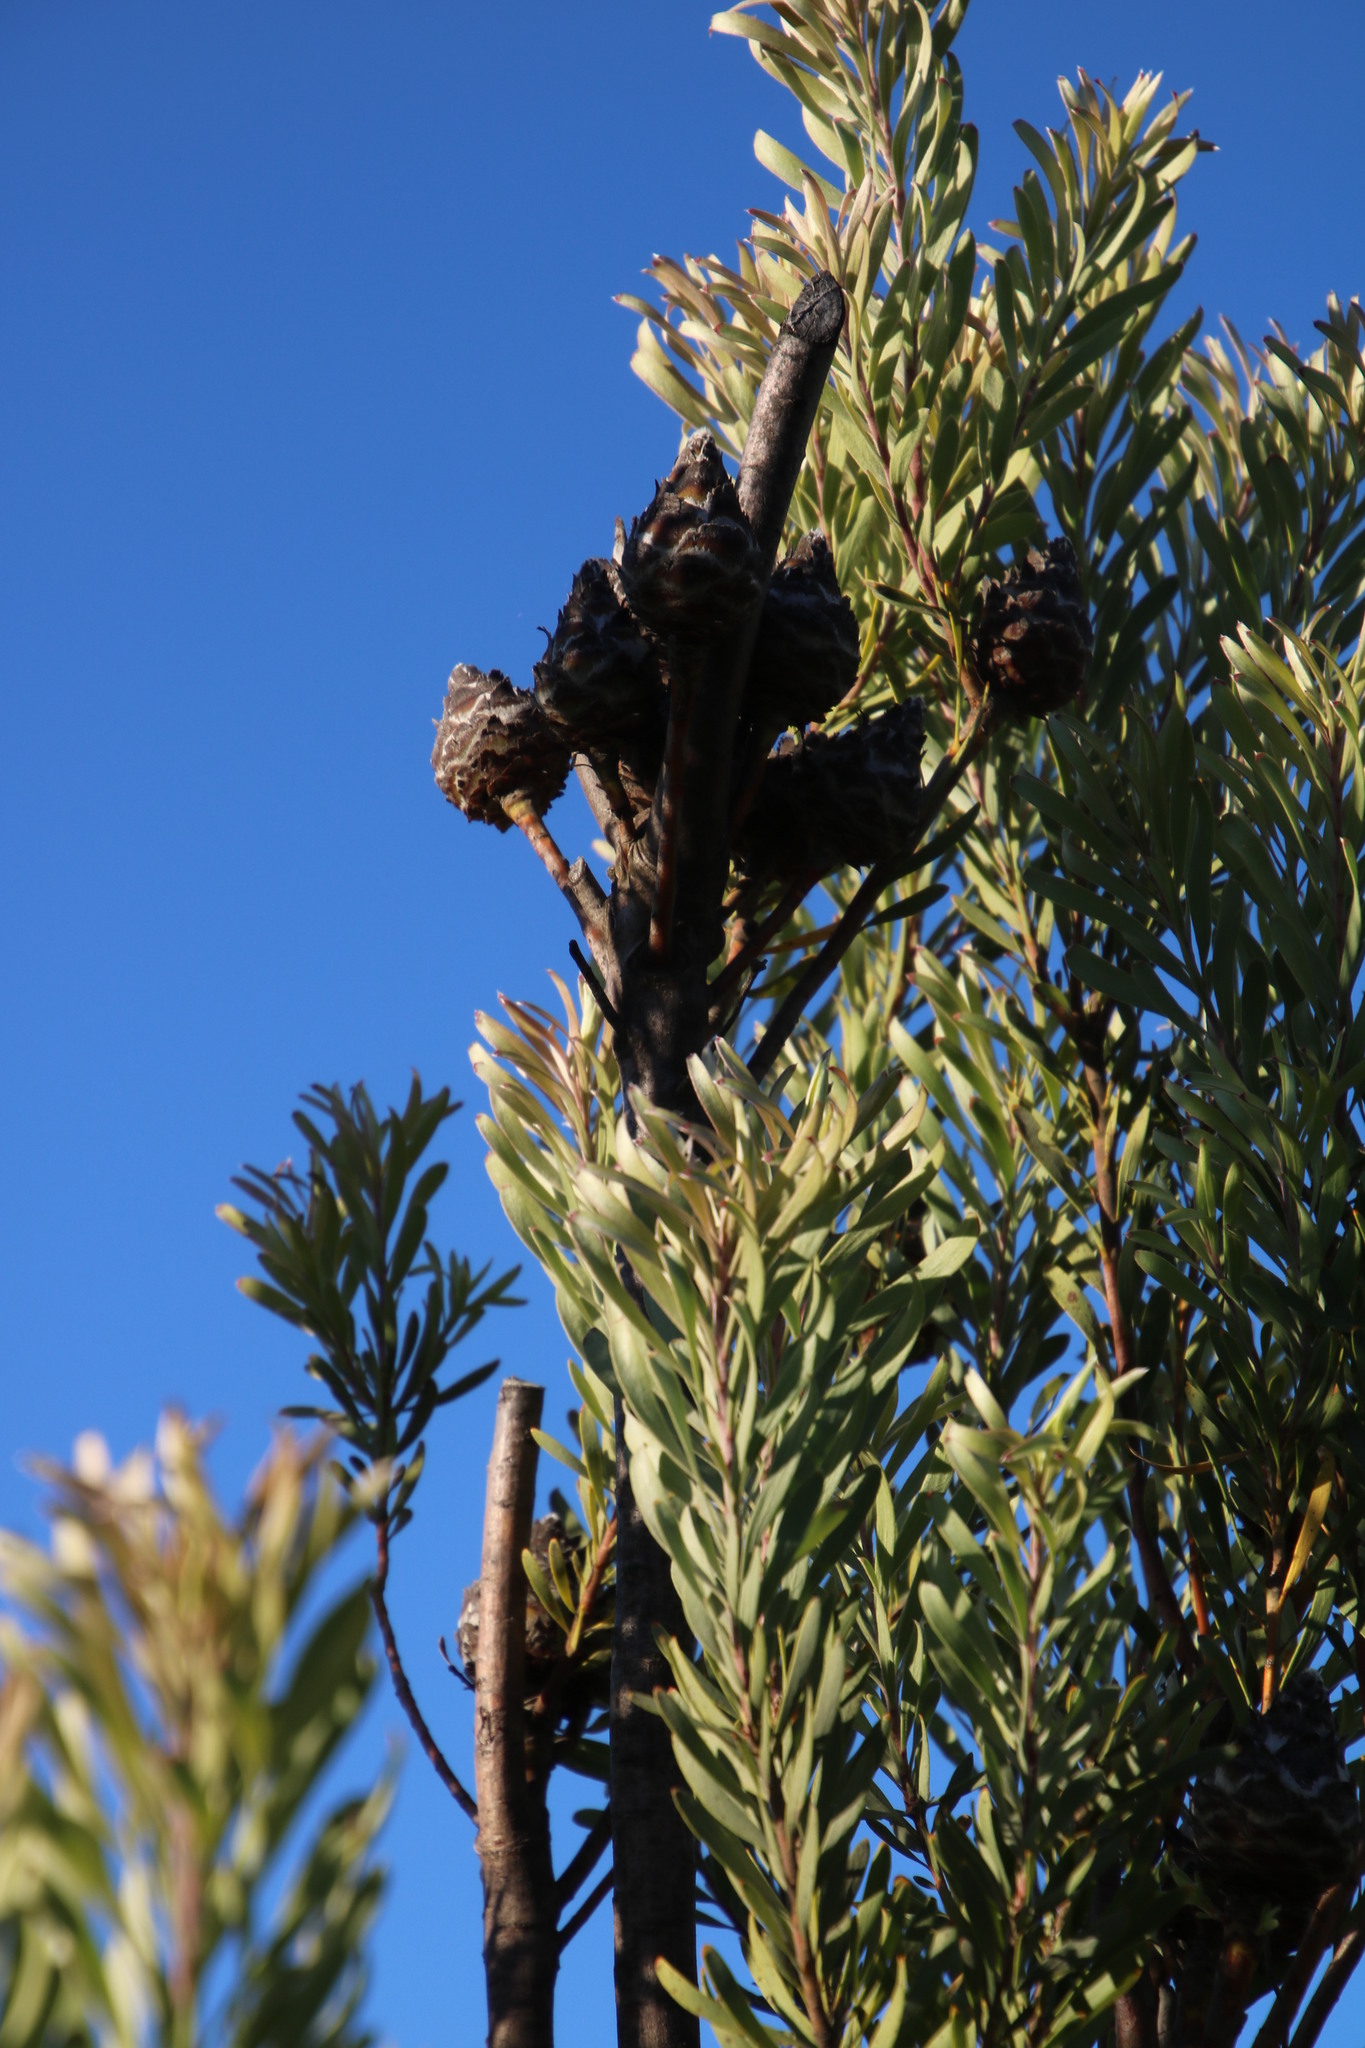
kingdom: Plantae
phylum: Tracheophyta
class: Magnoliopsida
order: Proteales
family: Proteaceae
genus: Leucadendron
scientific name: Leucadendron rubrum
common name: Spinning top
